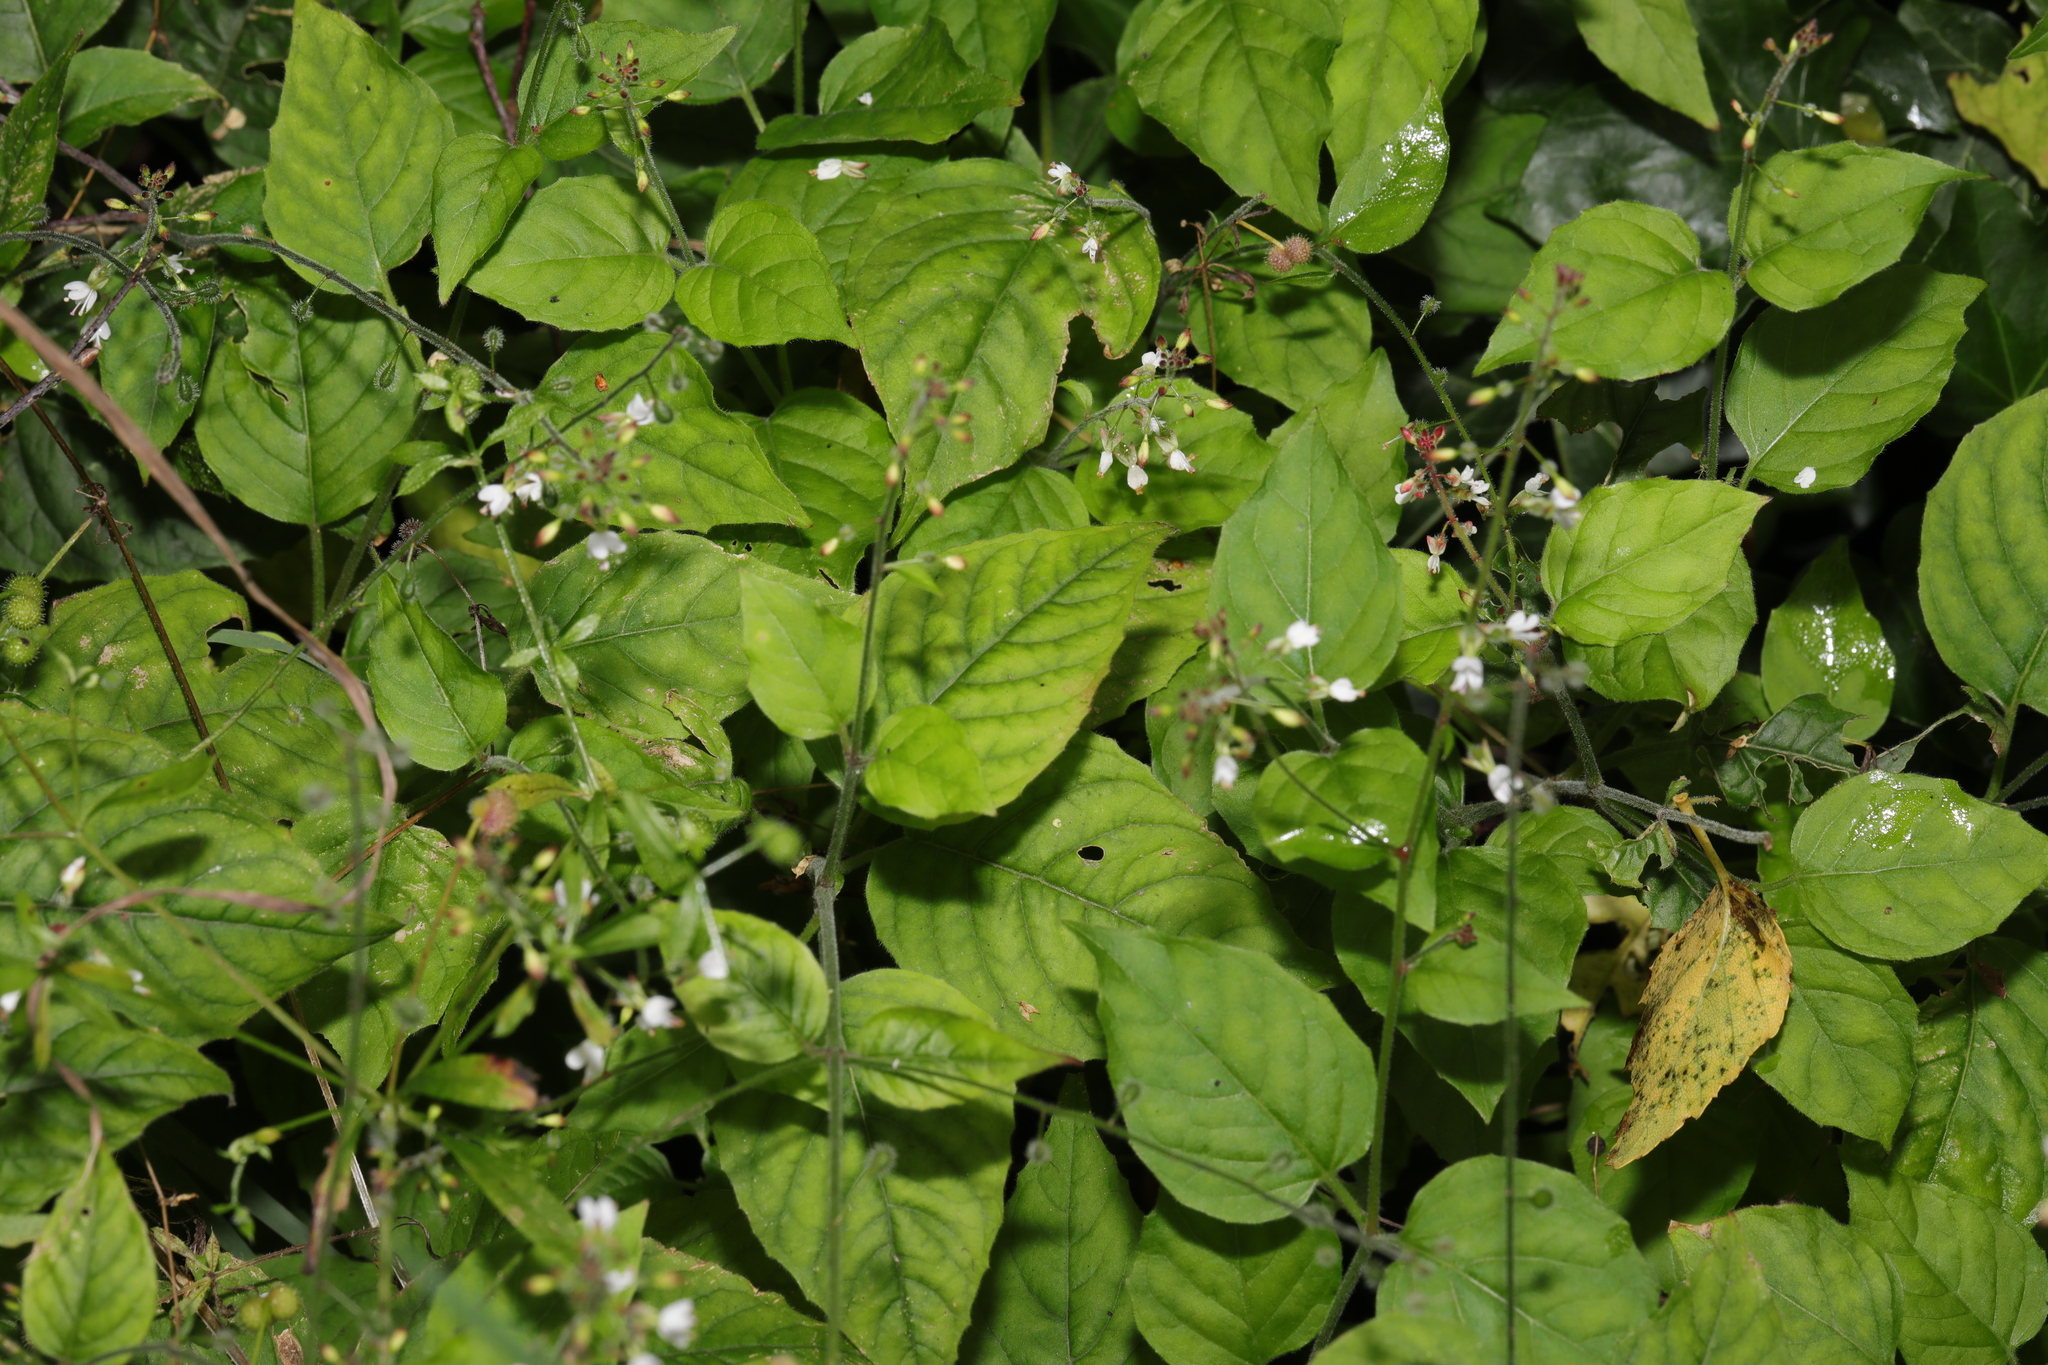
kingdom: Plantae
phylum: Tracheophyta
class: Magnoliopsida
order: Myrtales
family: Onagraceae
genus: Circaea
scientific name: Circaea lutetiana
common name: Enchanter's-nightshade
